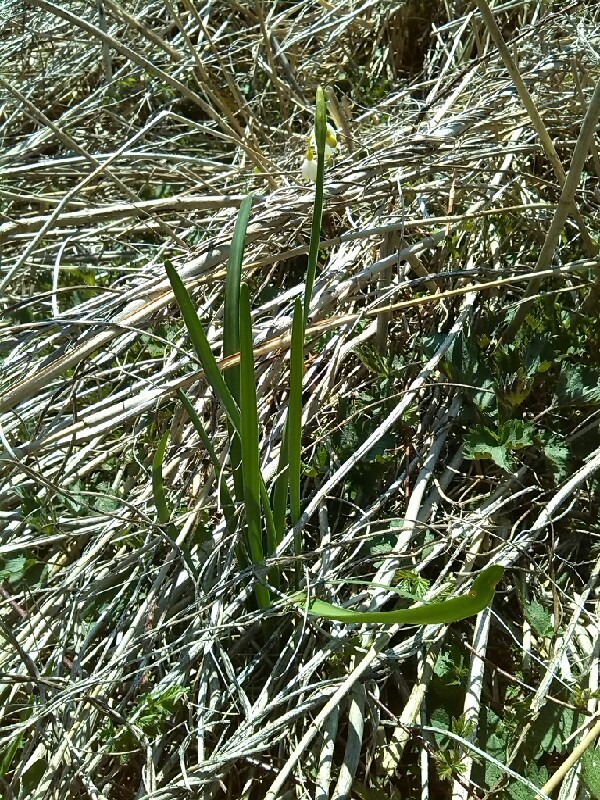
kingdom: Plantae
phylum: Tracheophyta
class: Liliopsida
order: Asparagales
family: Amaryllidaceae
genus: Leucojum
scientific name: Leucojum aestivum
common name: Summer snowflake
